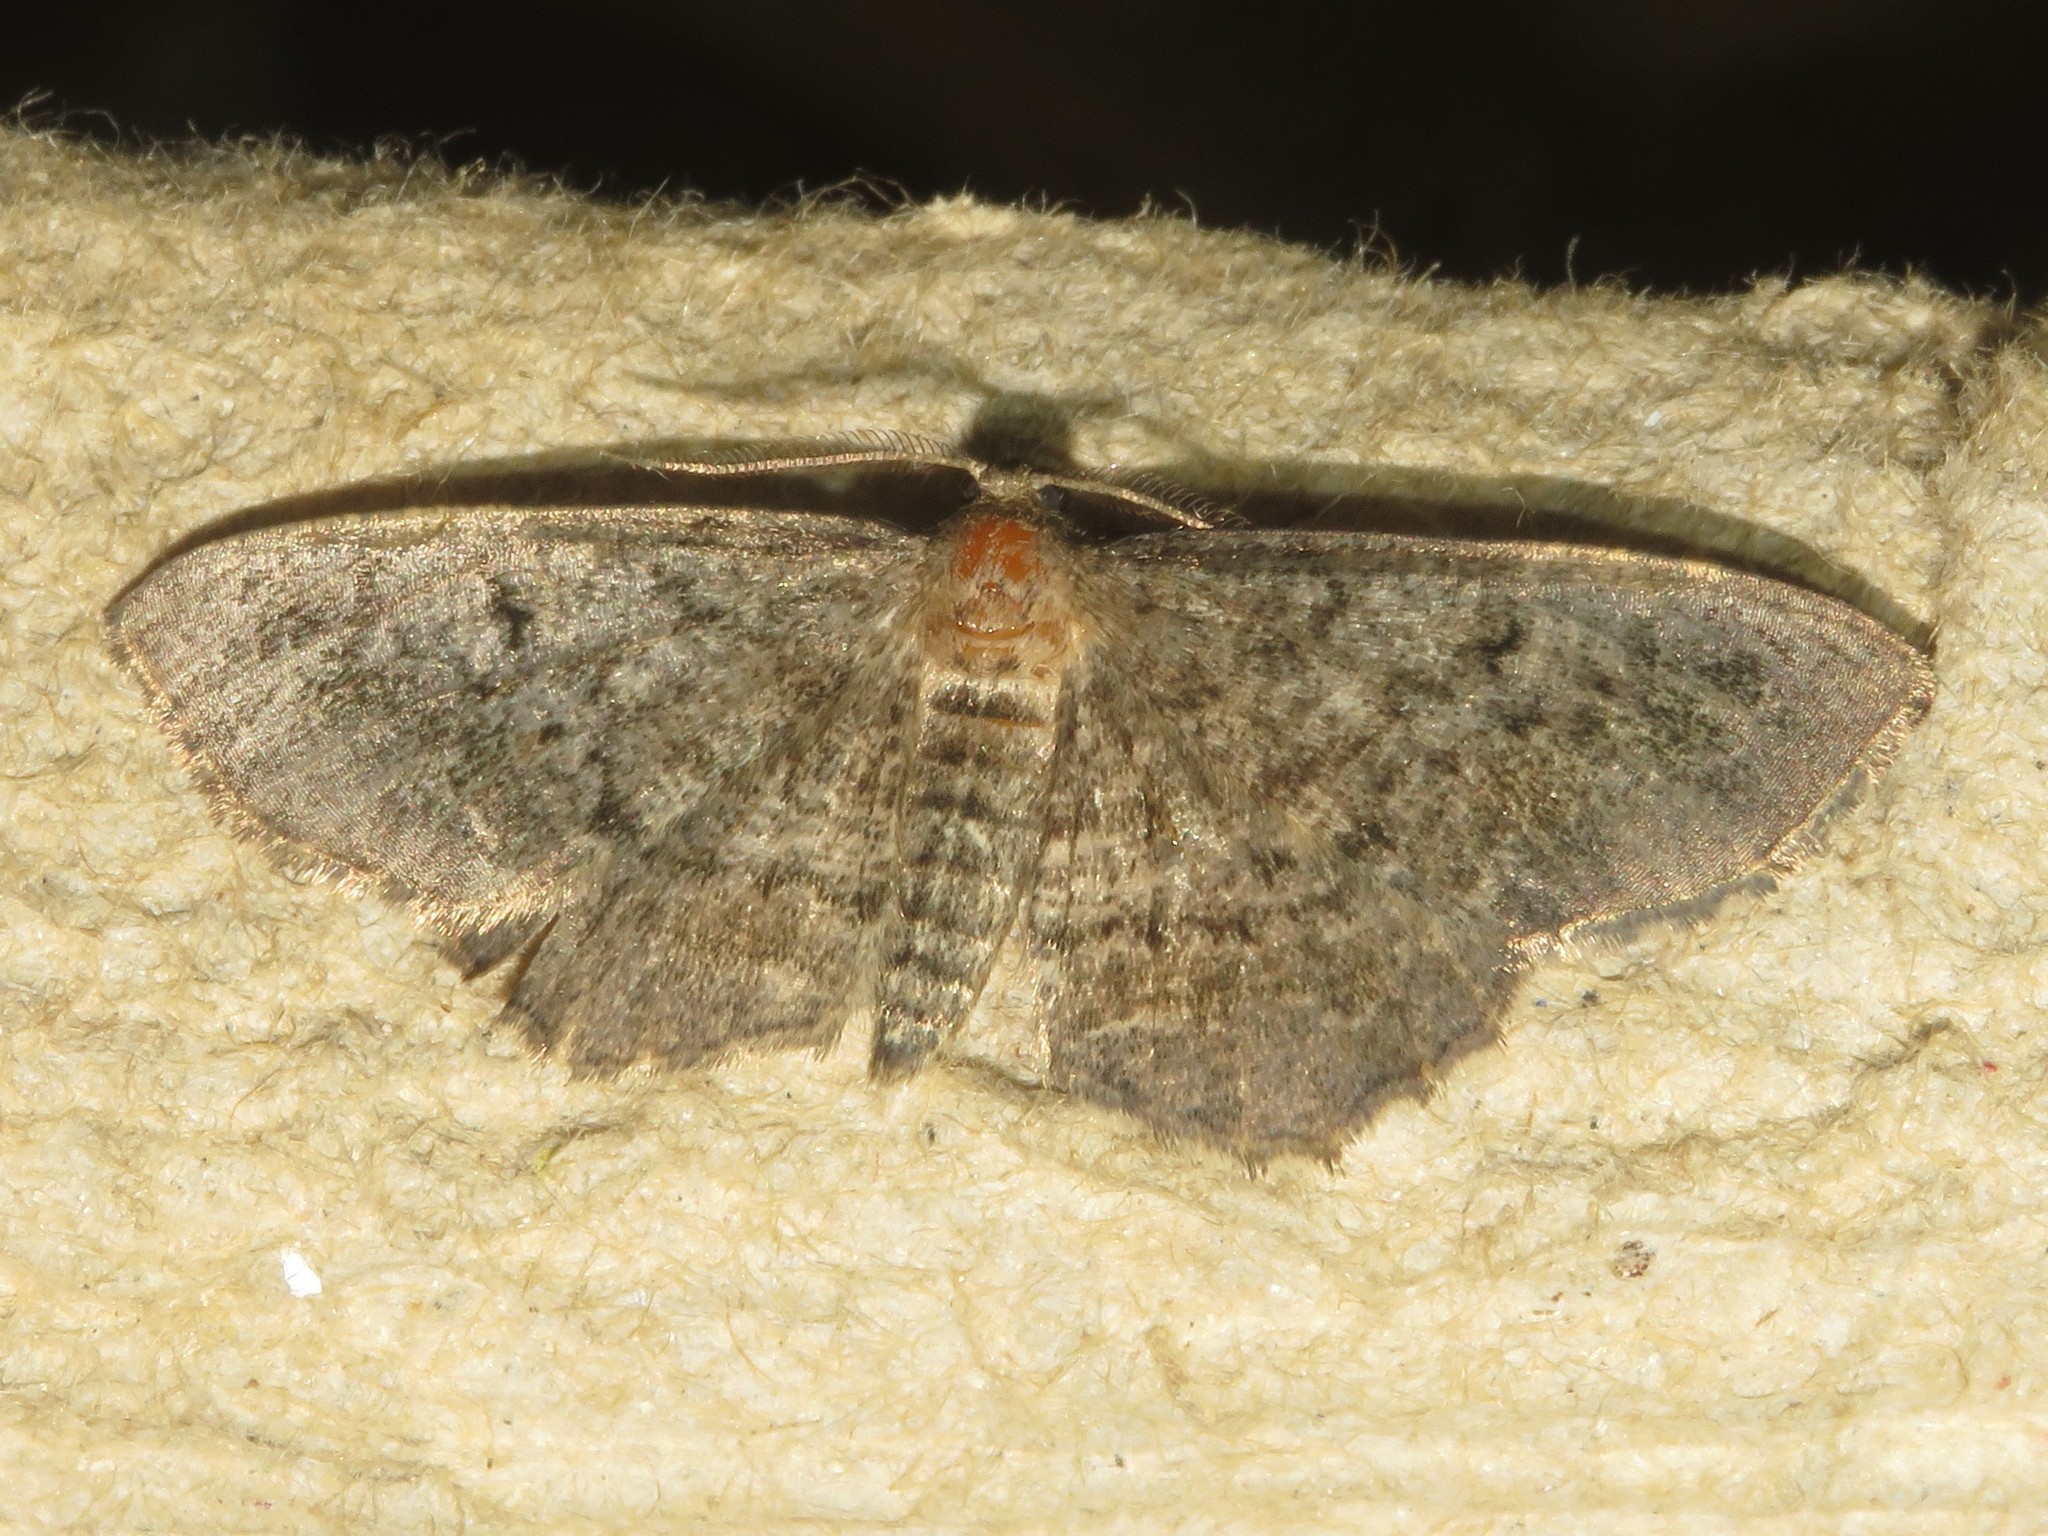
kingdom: Animalia
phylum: Arthropoda
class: Insecta
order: Lepidoptera
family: Geometridae
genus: Hypagyrtis
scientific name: Hypagyrtis piniata
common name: Pine measuringworm
